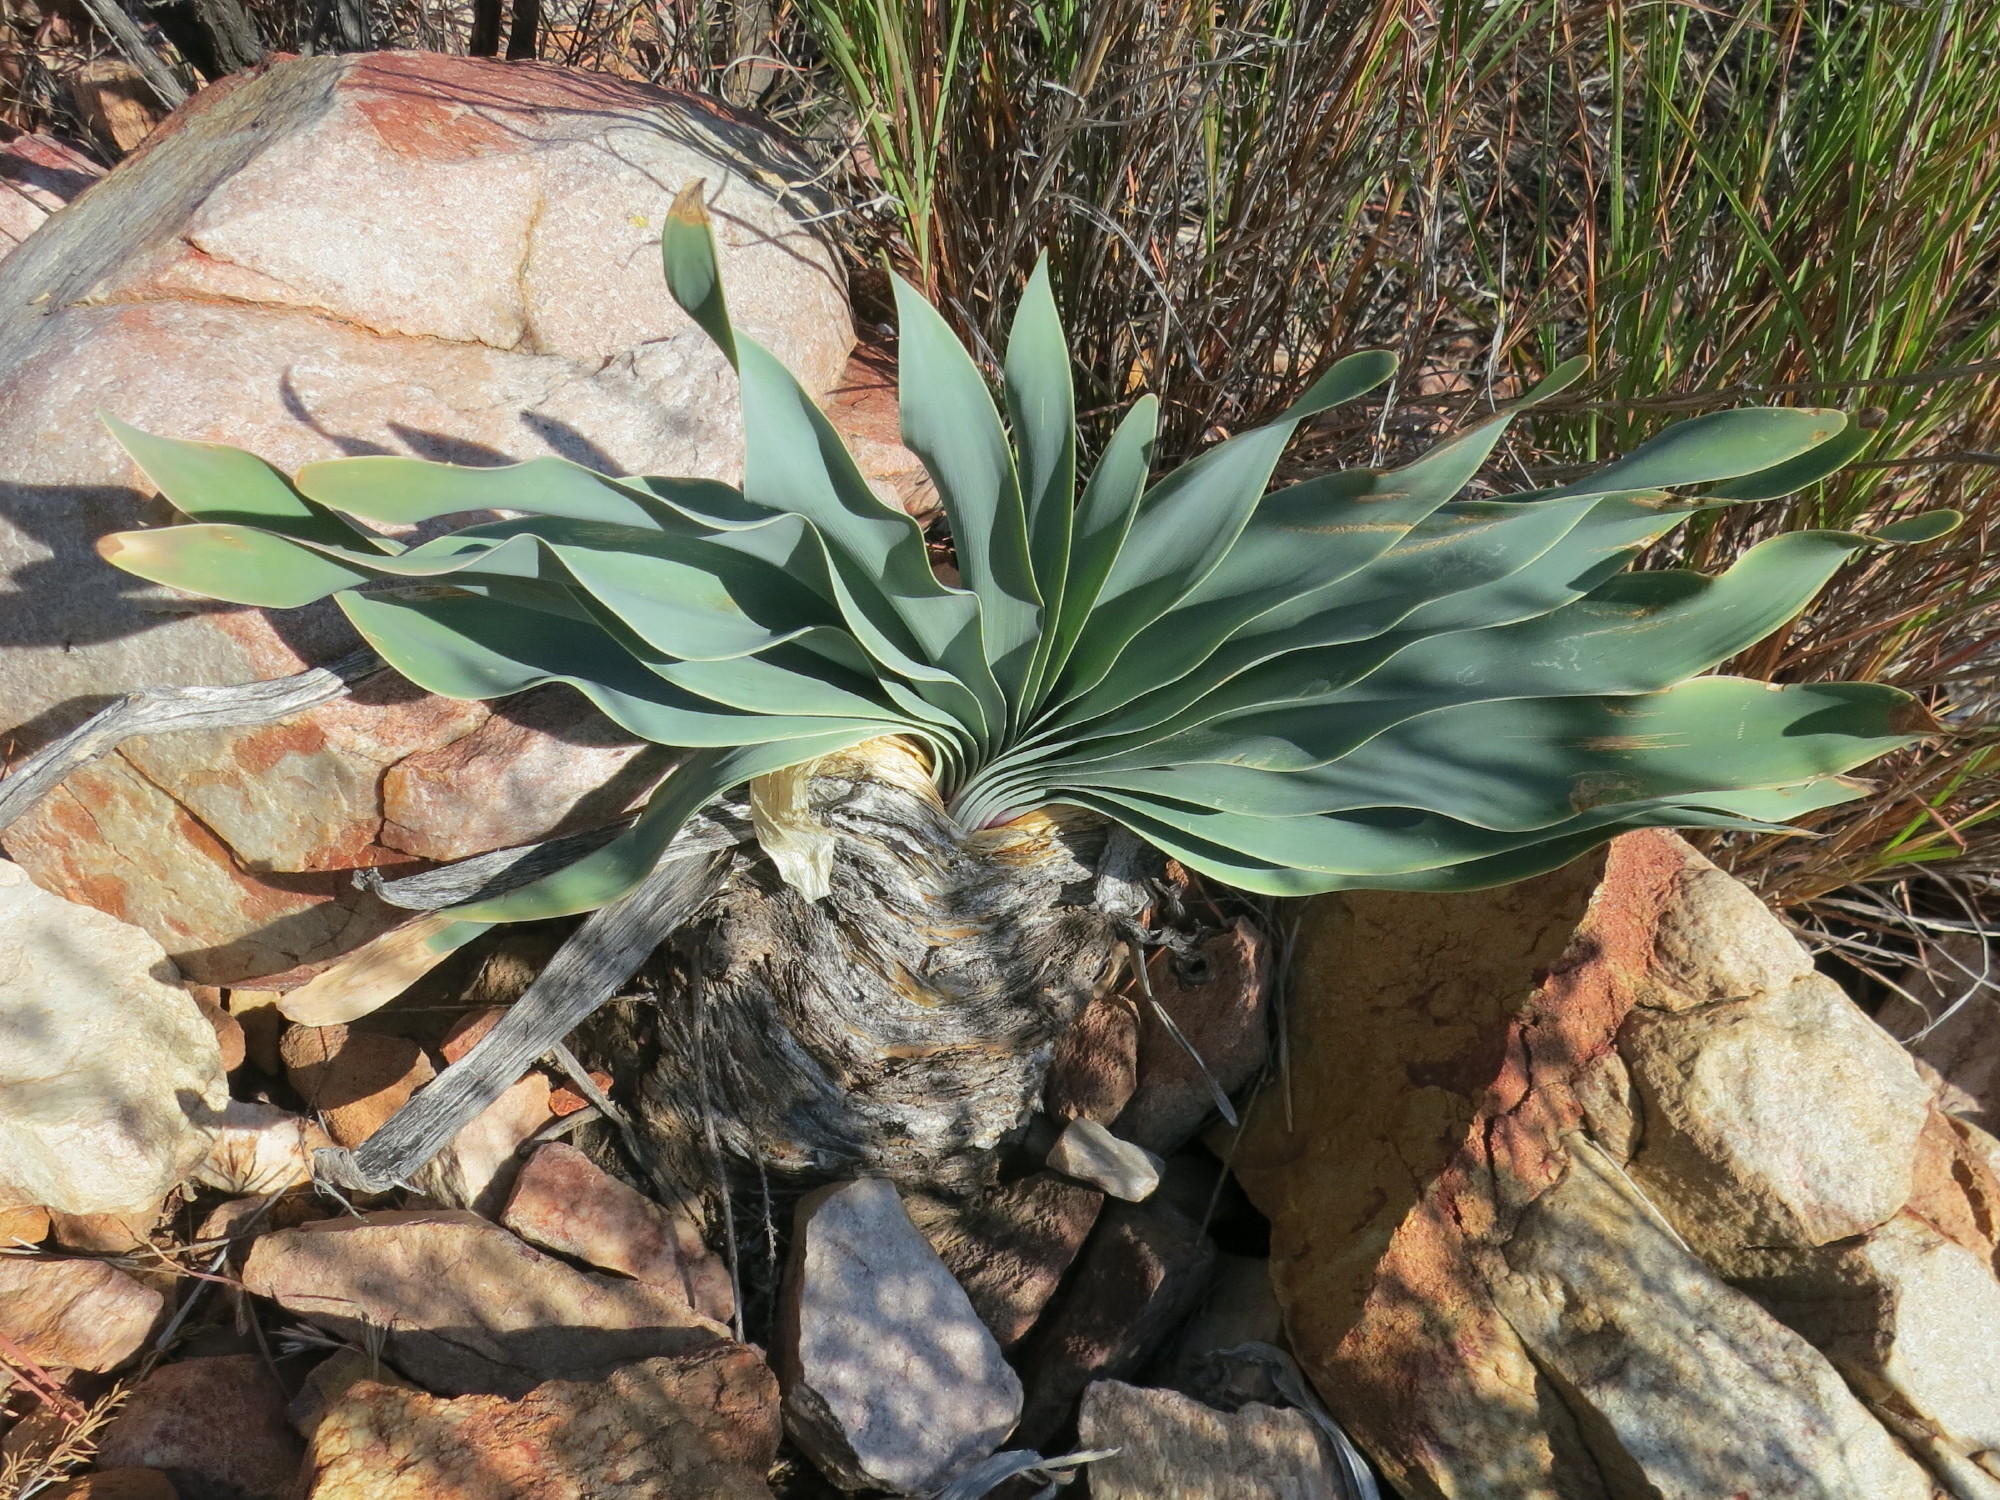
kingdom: Plantae
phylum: Tracheophyta
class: Liliopsida
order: Asparagales
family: Amaryllidaceae
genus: Boophone
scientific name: Boophone disticha
